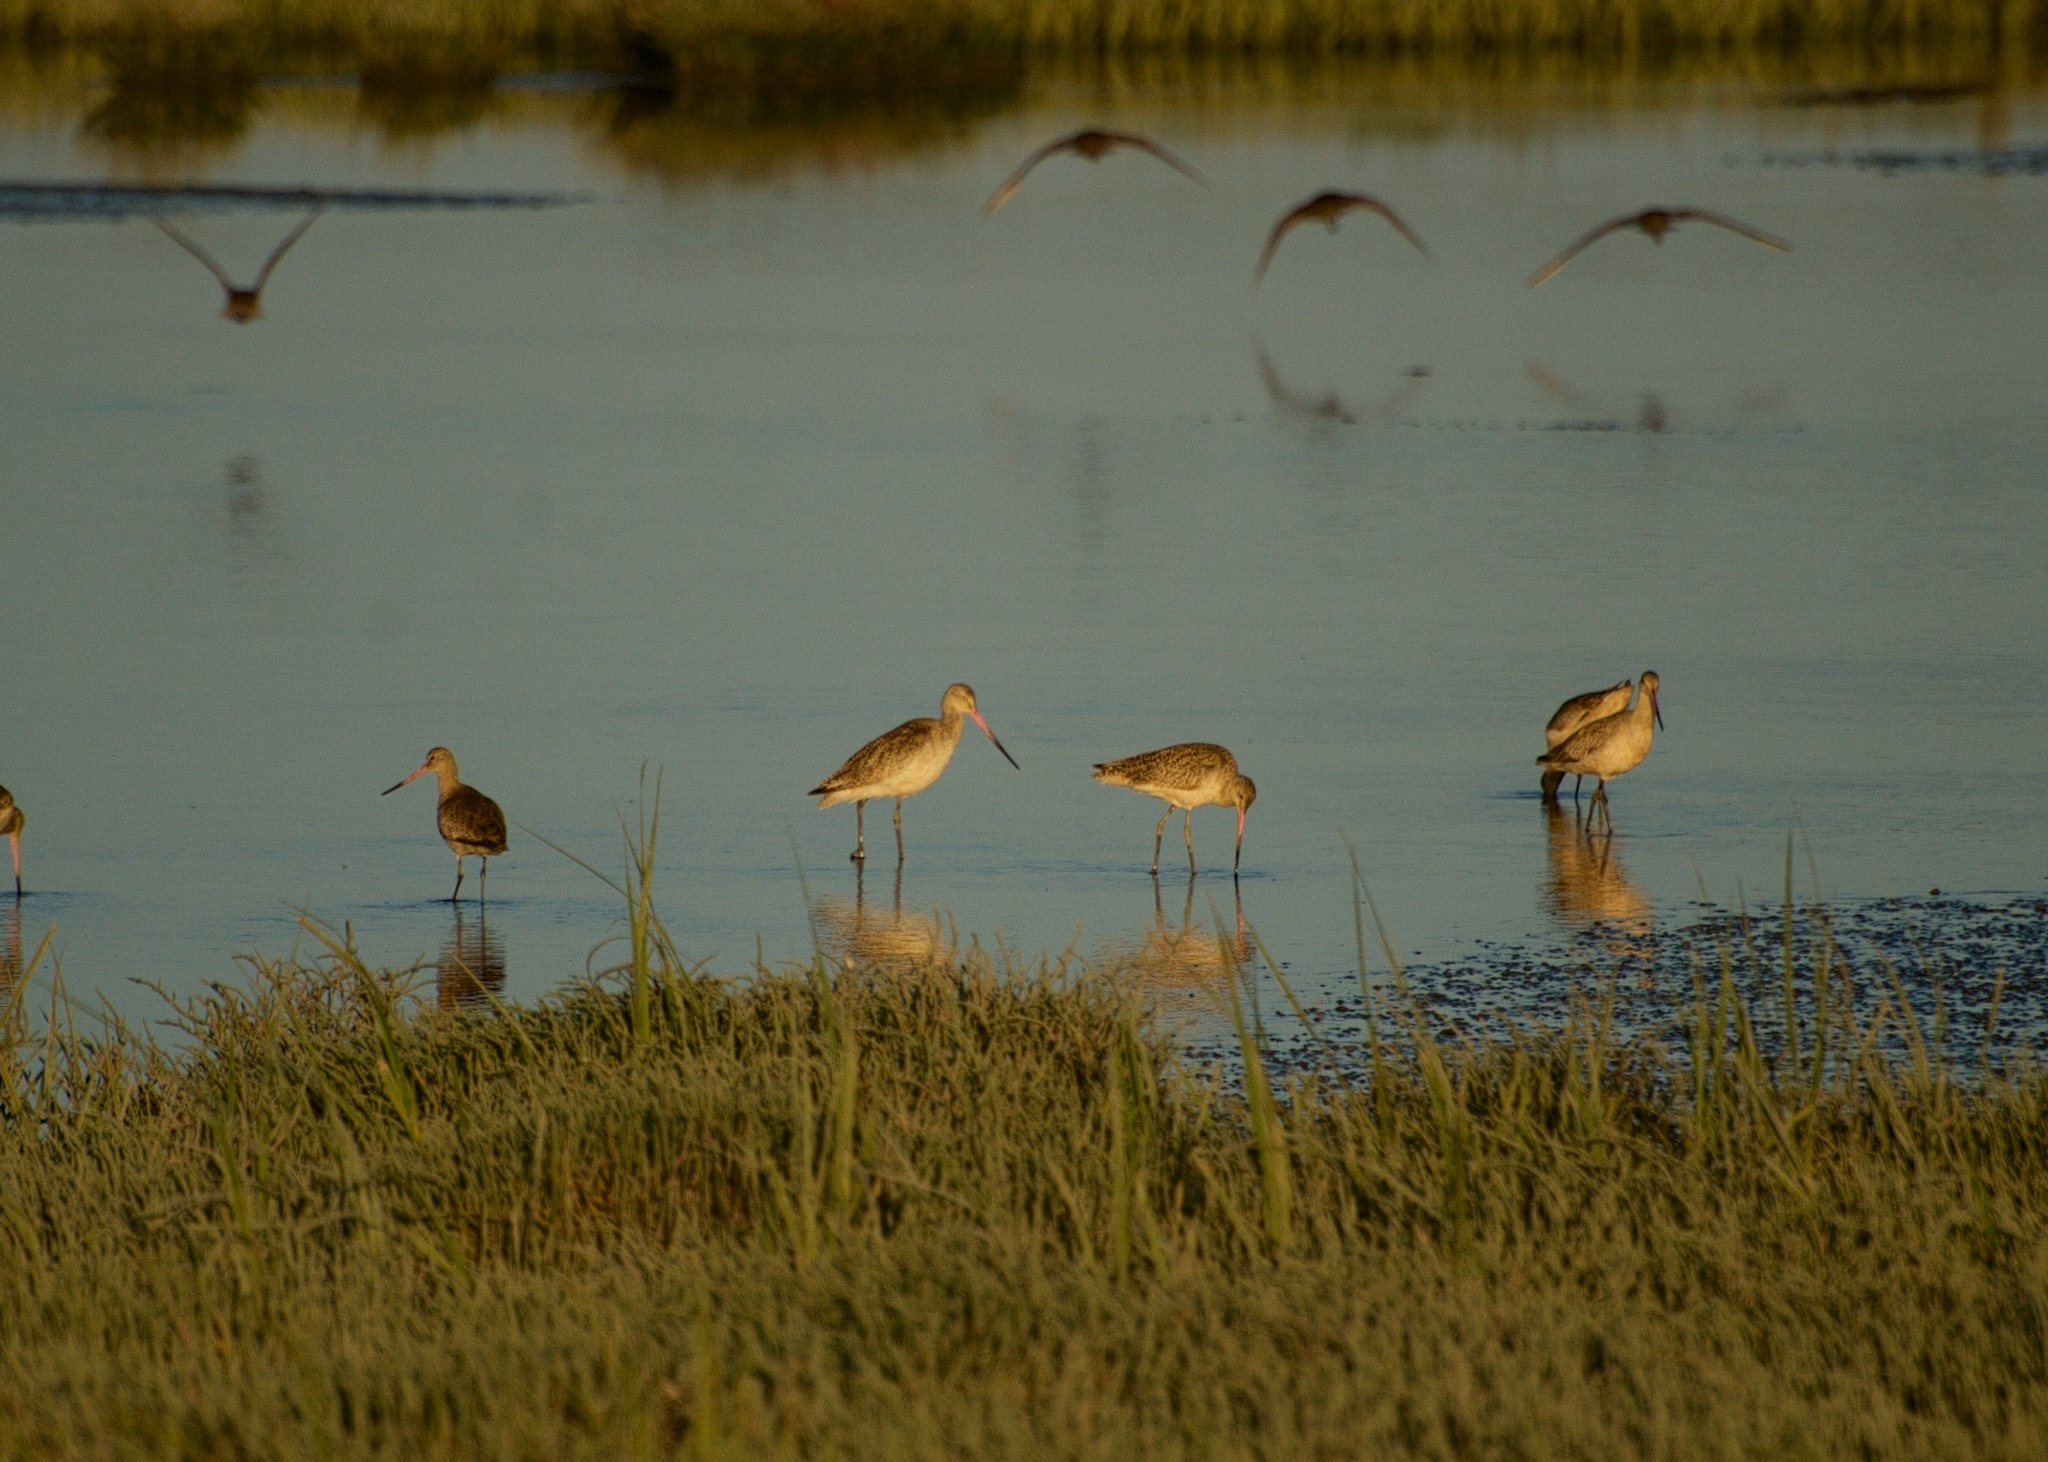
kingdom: Animalia
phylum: Chordata
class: Aves
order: Charadriiformes
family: Scolopacidae
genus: Limosa
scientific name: Limosa fedoa
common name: Marbled godwit
